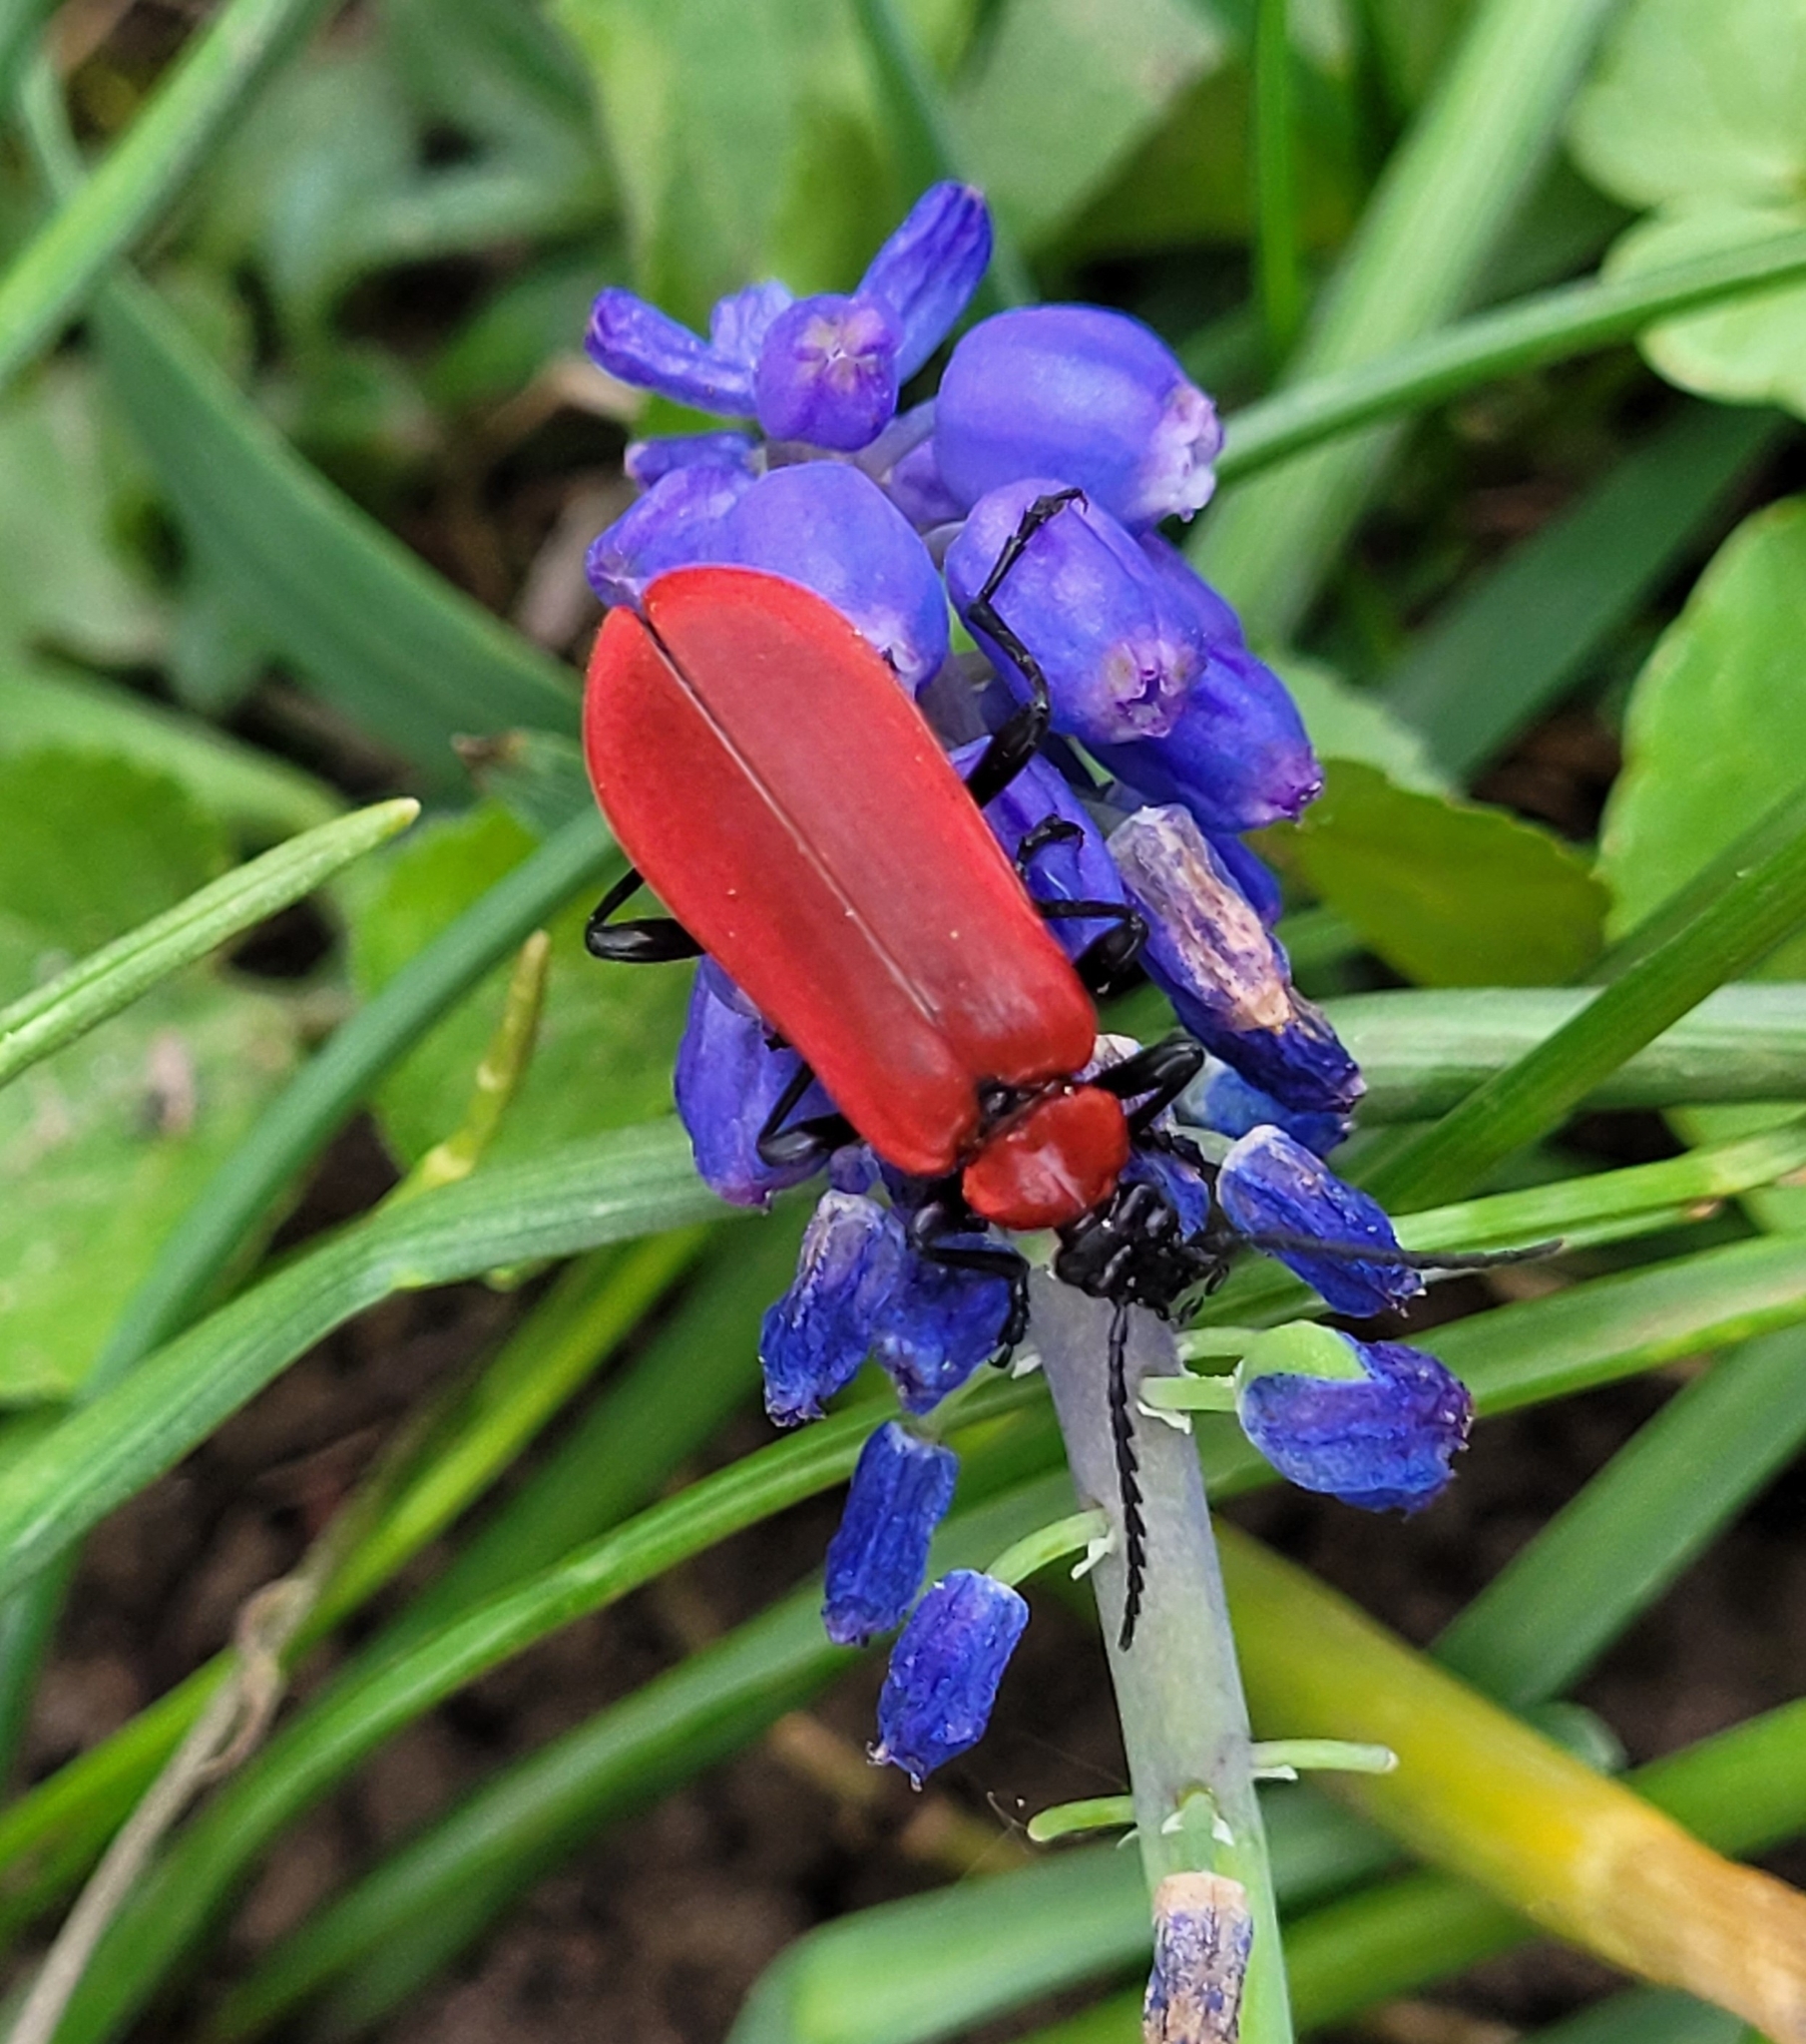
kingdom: Animalia
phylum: Arthropoda
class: Insecta
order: Coleoptera
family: Pyrochroidae
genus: Pyrochroa
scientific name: Pyrochroa coccinea
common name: Black-headed cardinal beetle
